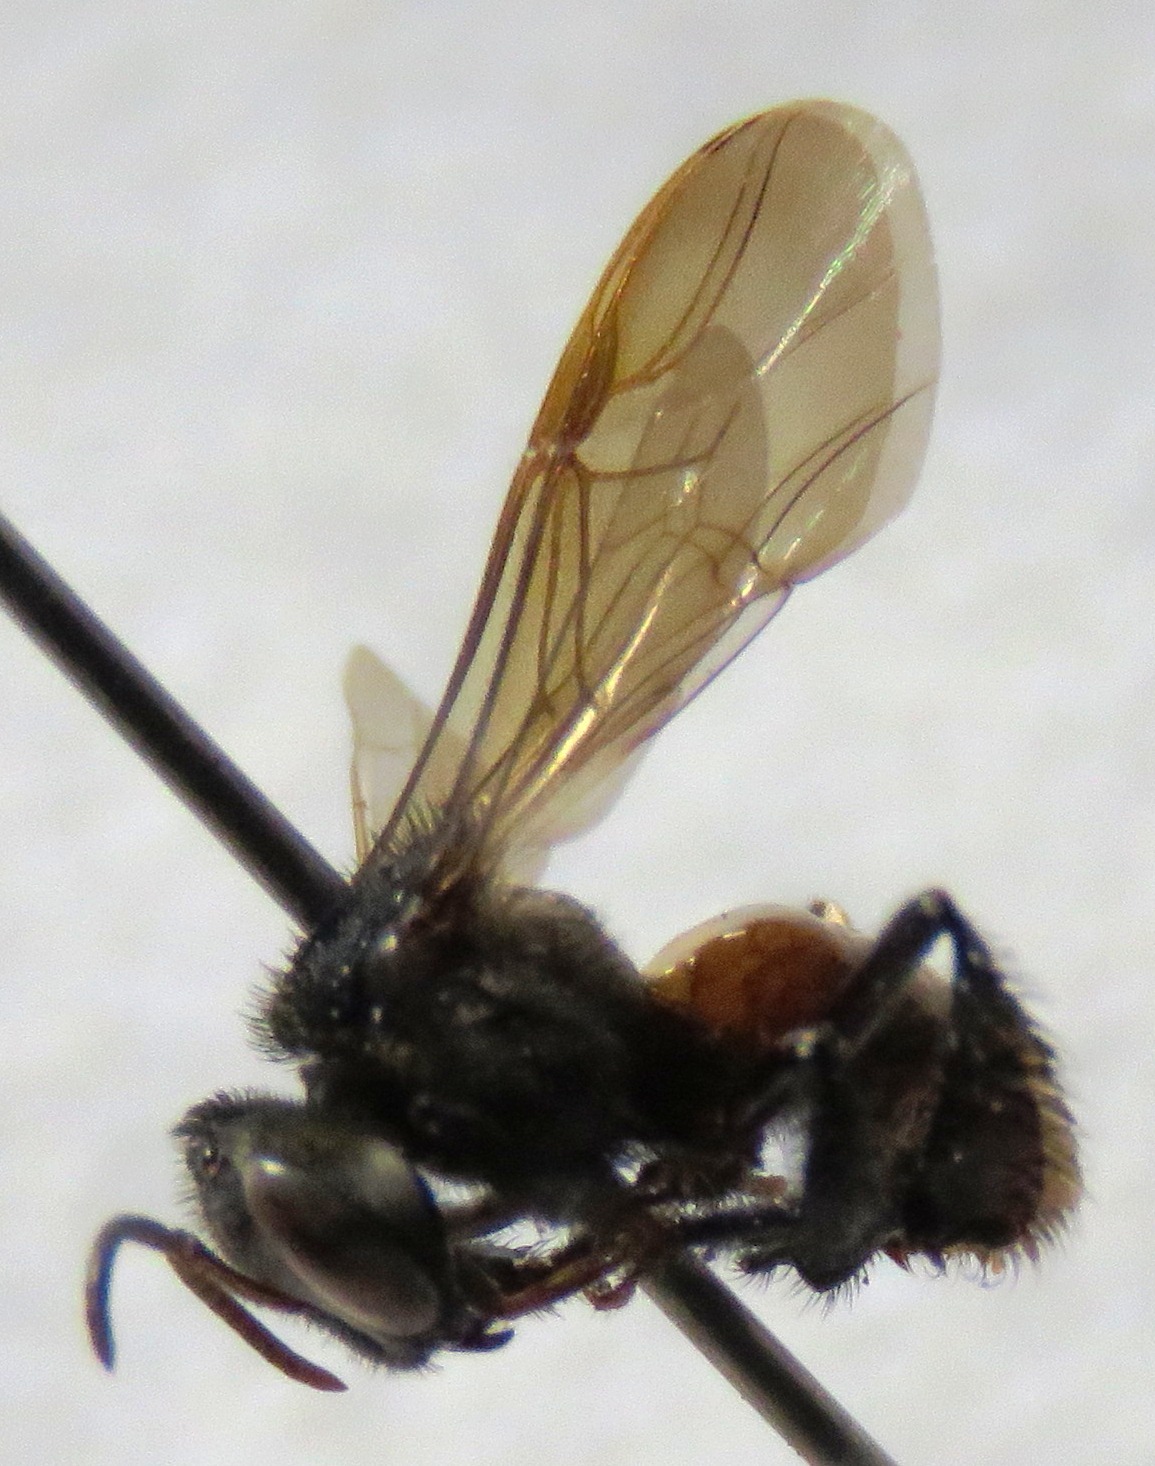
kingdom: Animalia
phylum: Arthropoda
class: Insecta
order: Hymenoptera
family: Apidae
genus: Trigona
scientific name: Trigona fulviventris
